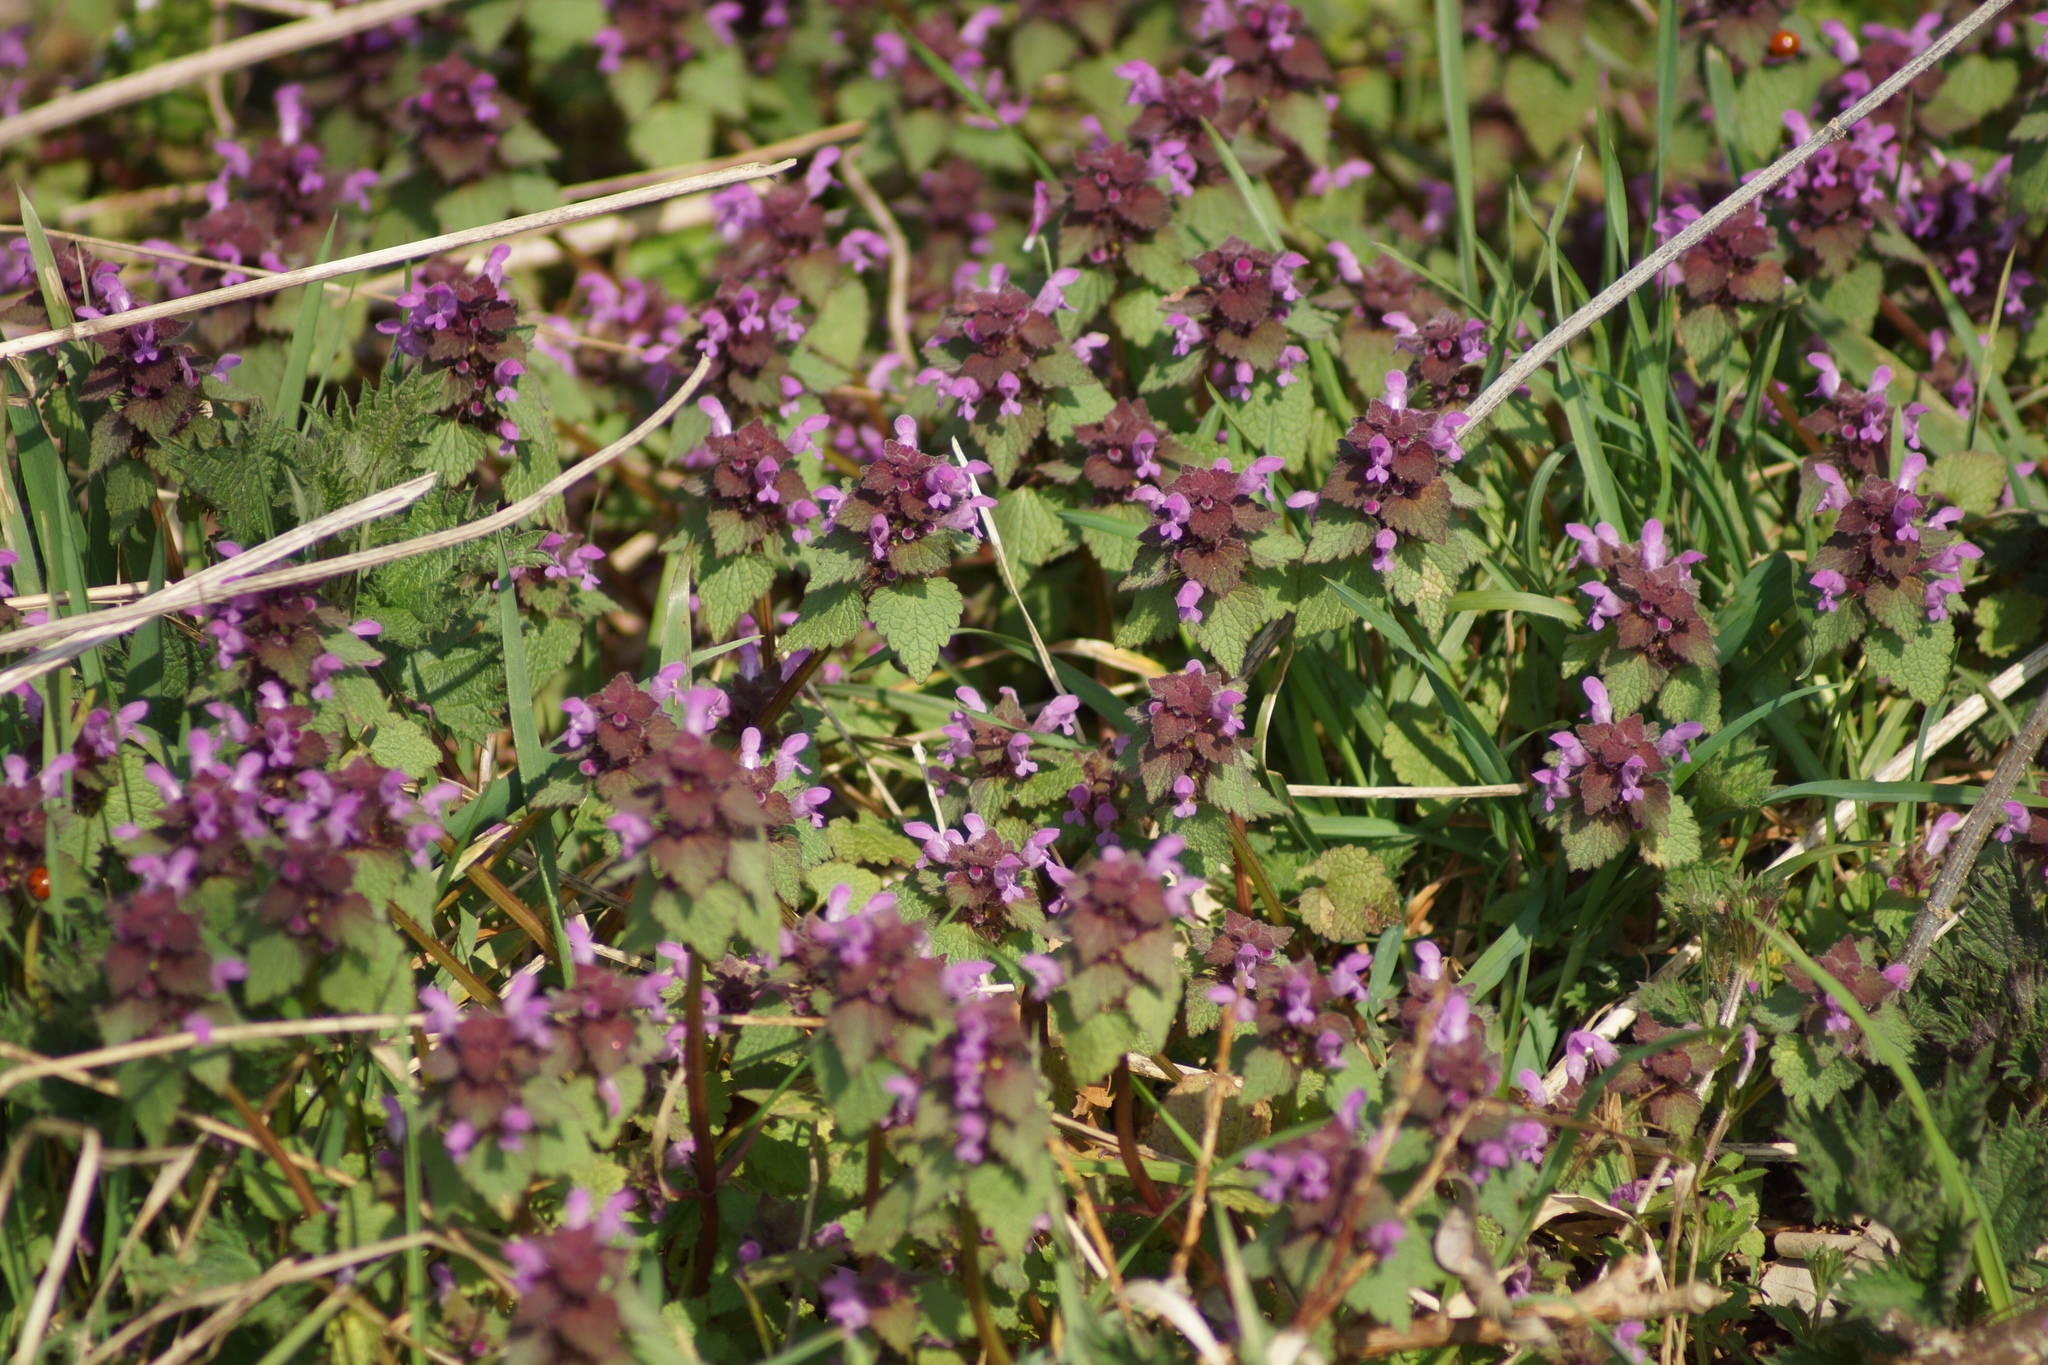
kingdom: Plantae
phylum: Tracheophyta
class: Magnoliopsida
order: Lamiales
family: Lamiaceae
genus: Lamium
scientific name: Lamium purpureum
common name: Red dead-nettle
